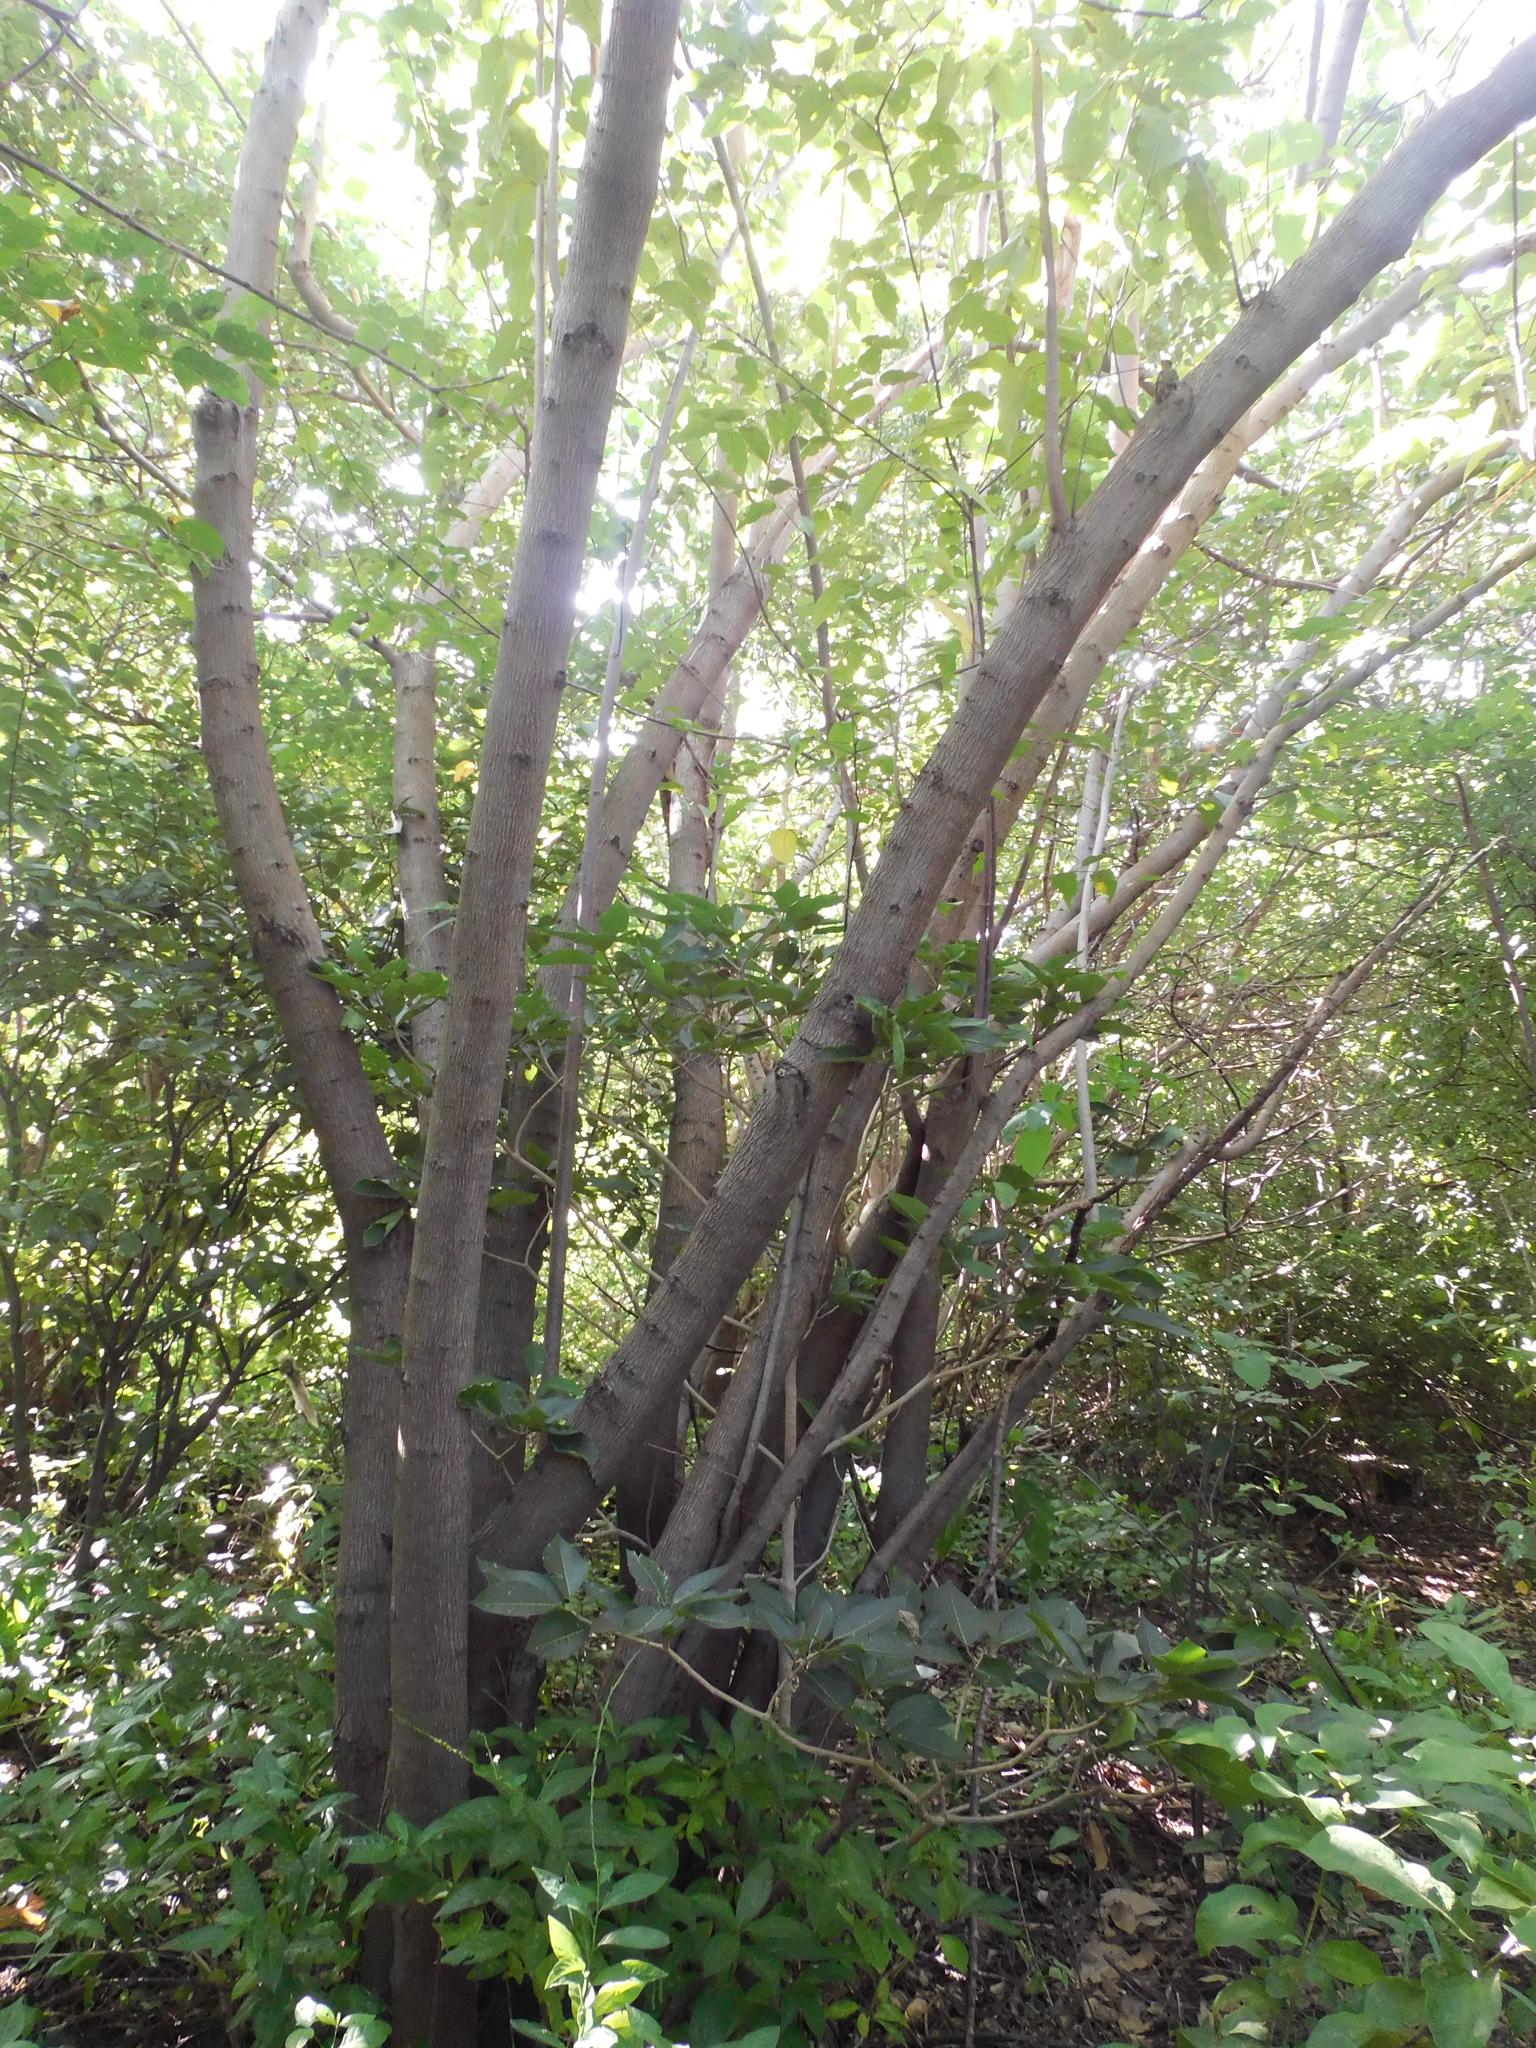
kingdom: Plantae
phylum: Tracheophyta
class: Magnoliopsida
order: Malvales
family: Malvaceae
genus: Guazuma
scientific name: Guazuma ulmifolia
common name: Bastard-cedar
